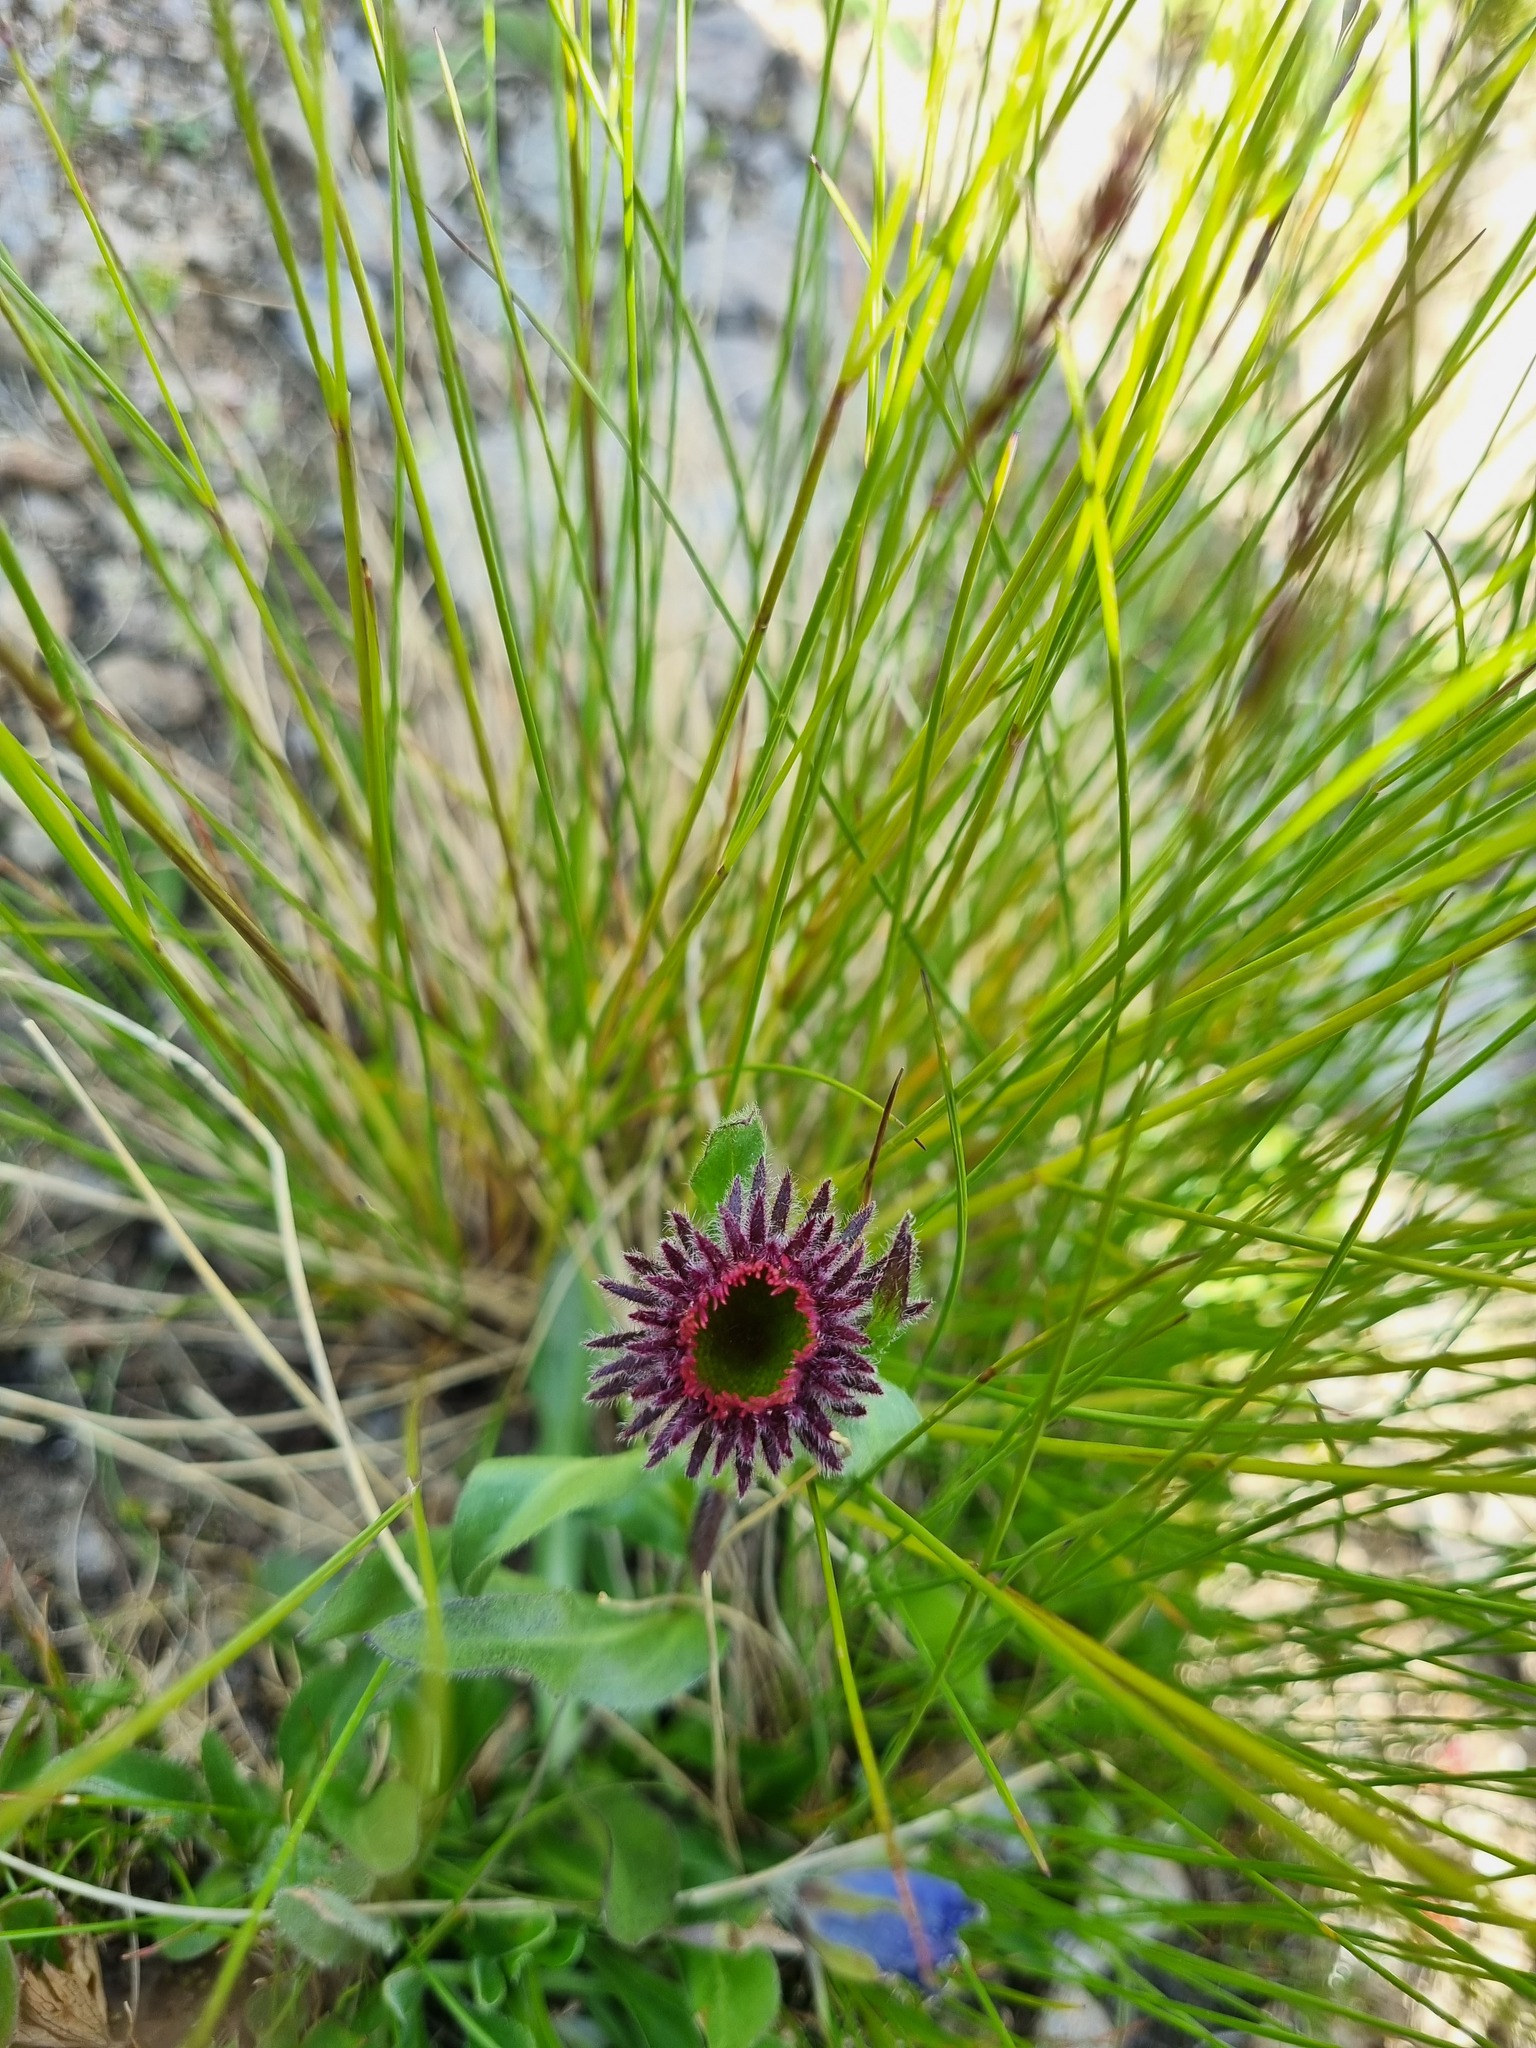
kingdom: Plantae
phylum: Tracheophyta
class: Magnoliopsida
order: Asterales
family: Asteraceae
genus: Erigeron
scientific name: Erigeron uniflorus
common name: Northern daisy
